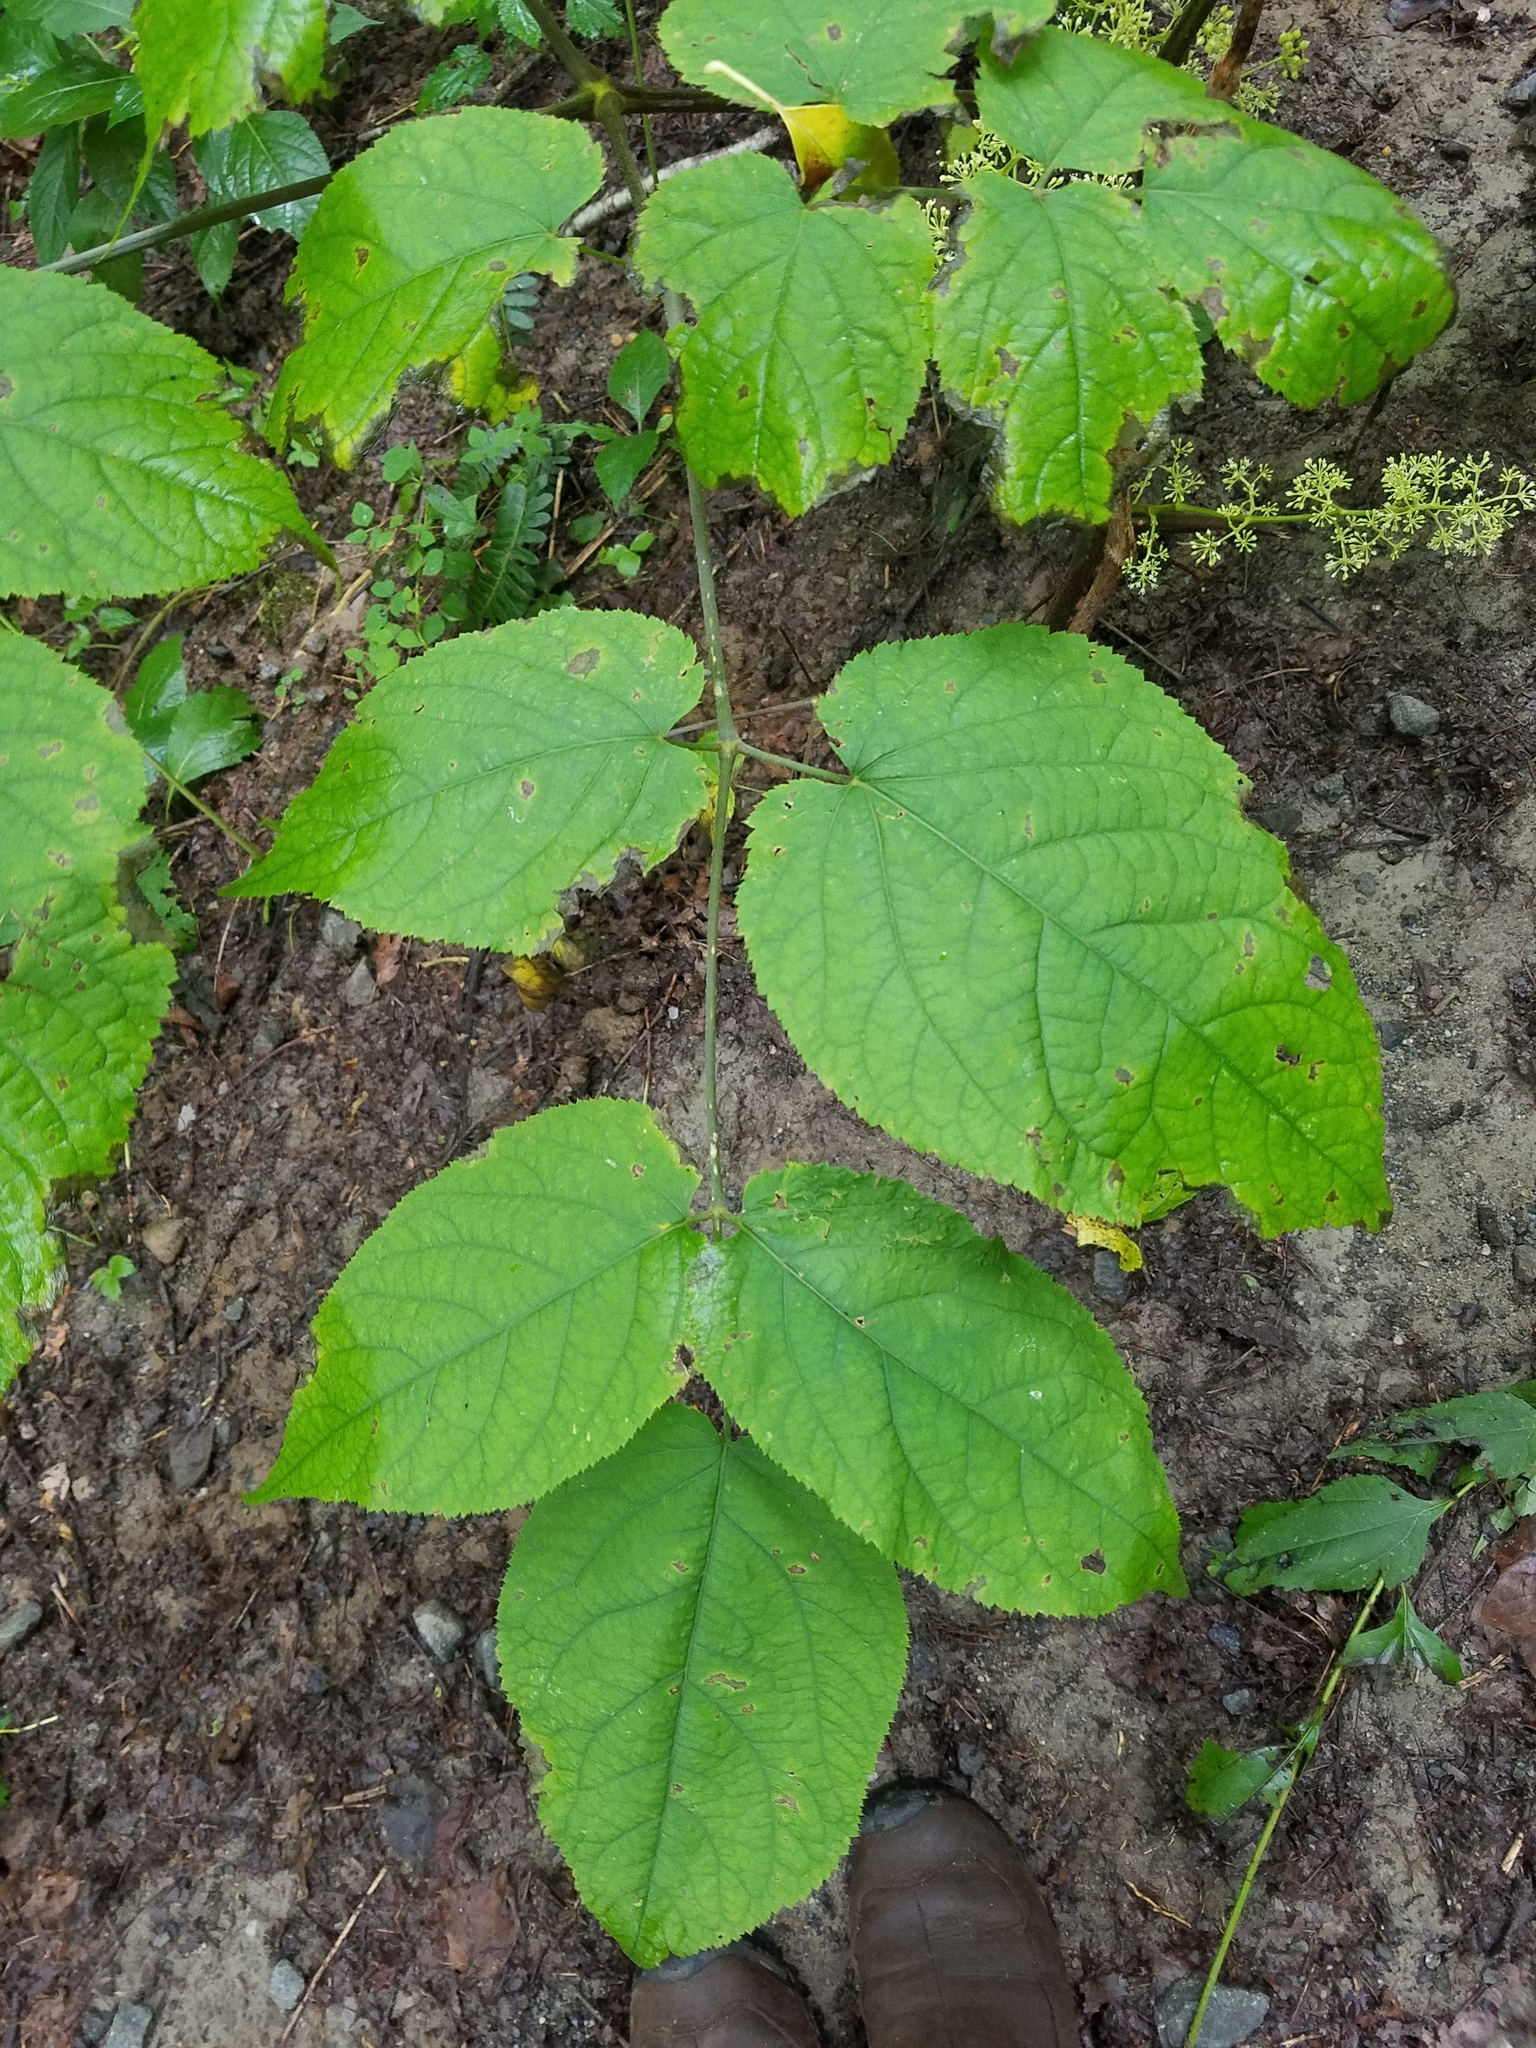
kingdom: Plantae
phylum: Tracheophyta
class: Magnoliopsida
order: Apiales
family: Araliaceae
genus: Aralia
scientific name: Aralia racemosa
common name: American-spikenard
